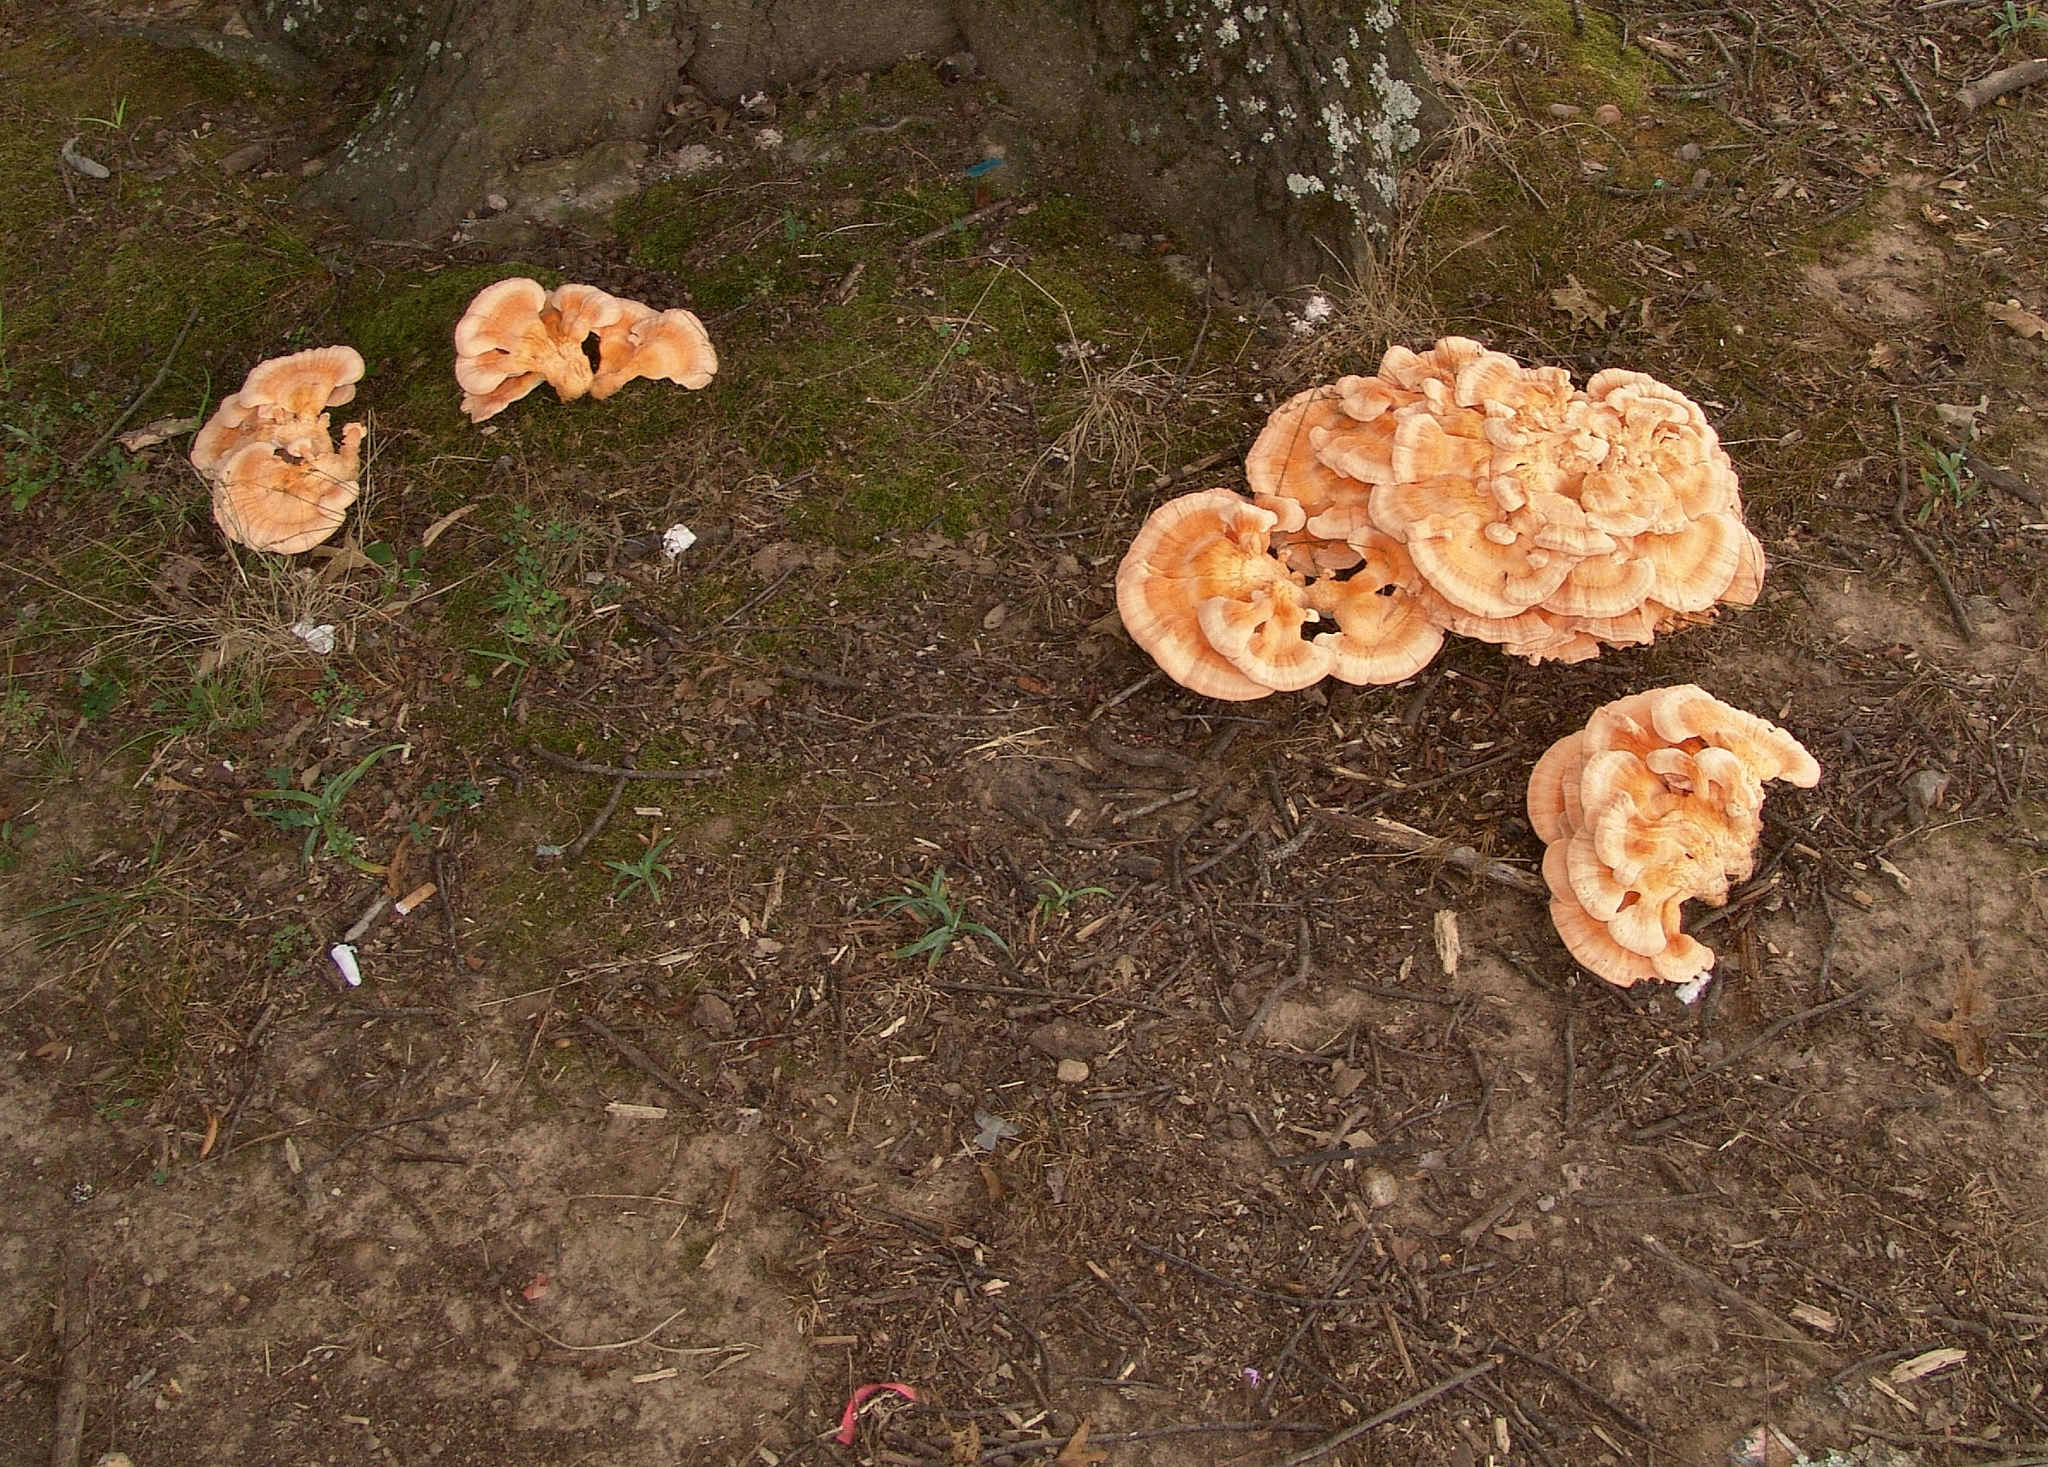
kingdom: Fungi
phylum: Basidiomycota
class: Agaricomycetes
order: Polyporales
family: Laetiporaceae
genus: Laetiporus
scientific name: Laetiporus sulphureus
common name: Chicken of the woods
